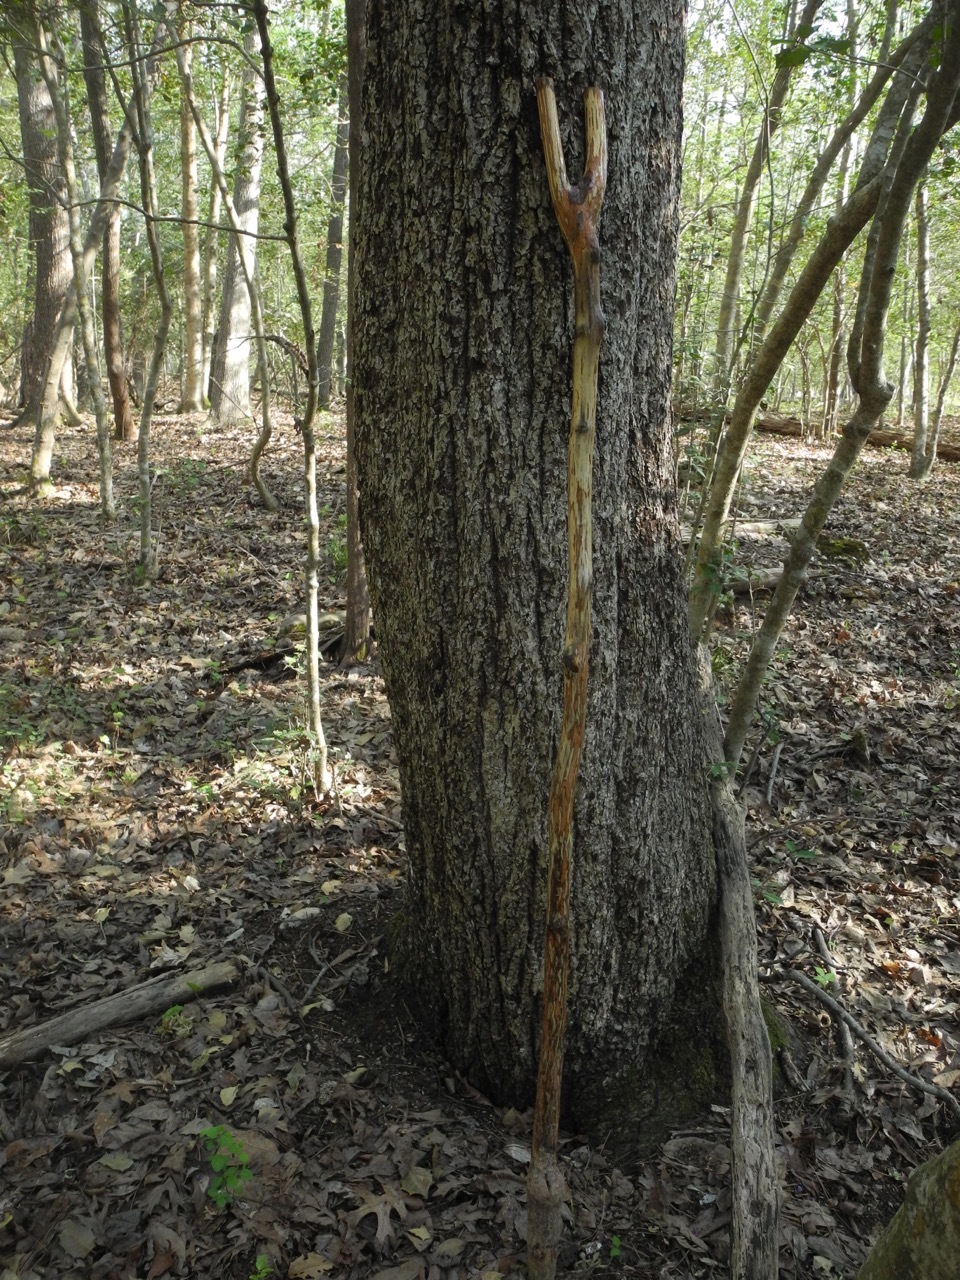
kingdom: Plantae
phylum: Tracheophyta
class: Magnoliopsida
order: Fagales
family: Juglandaceae
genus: Carya
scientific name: Carya alba
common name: Mockernut hickory
